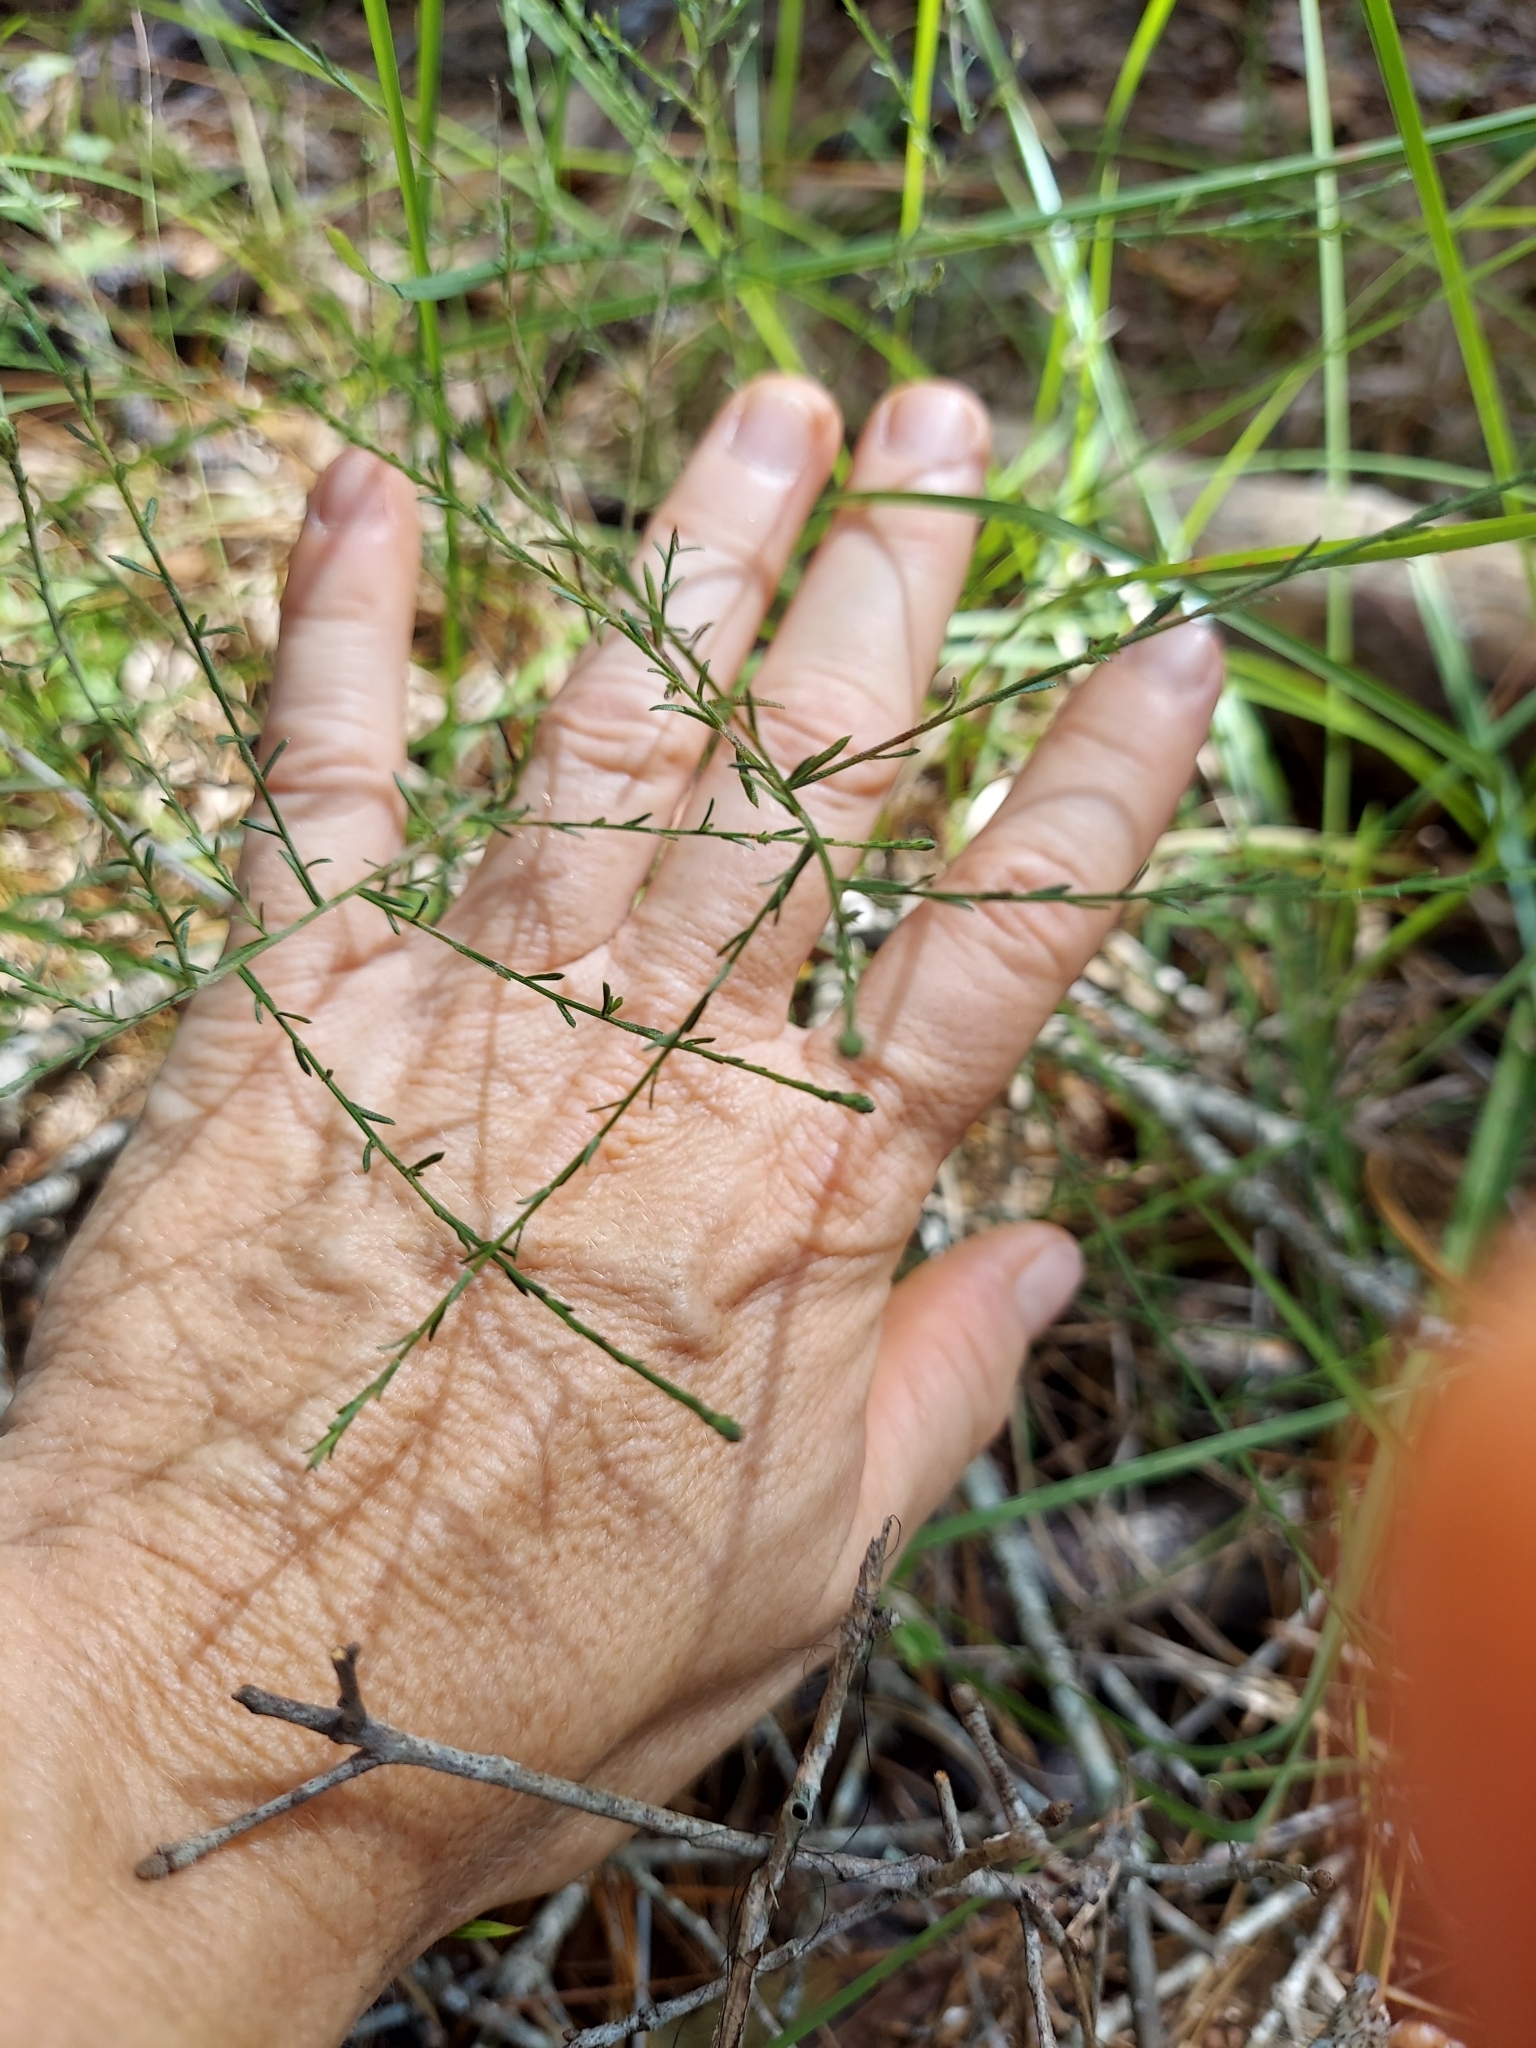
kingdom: Plantae
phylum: Tracheophyta
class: Magnoliopsida
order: Asterales
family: Asteraceae
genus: Symphyotrichum
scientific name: Symphyotrichum dumosum
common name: Bushy aster
